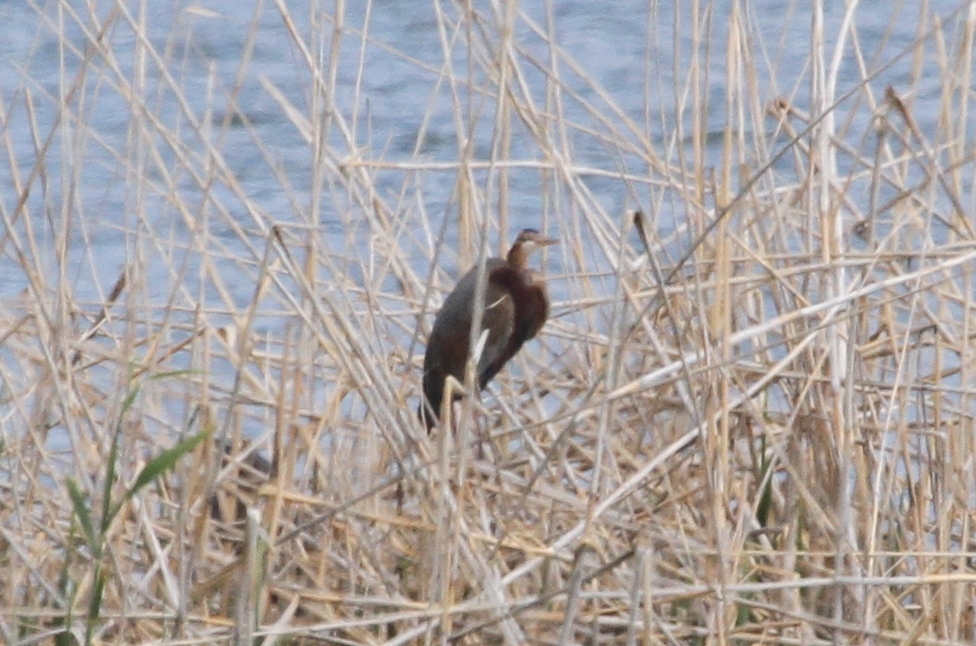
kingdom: Animalia
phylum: Chordata
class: Aves
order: Pelecaniformes
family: Ardeidae
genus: Ardea
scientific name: Ardea purpurea
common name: Purple heron
